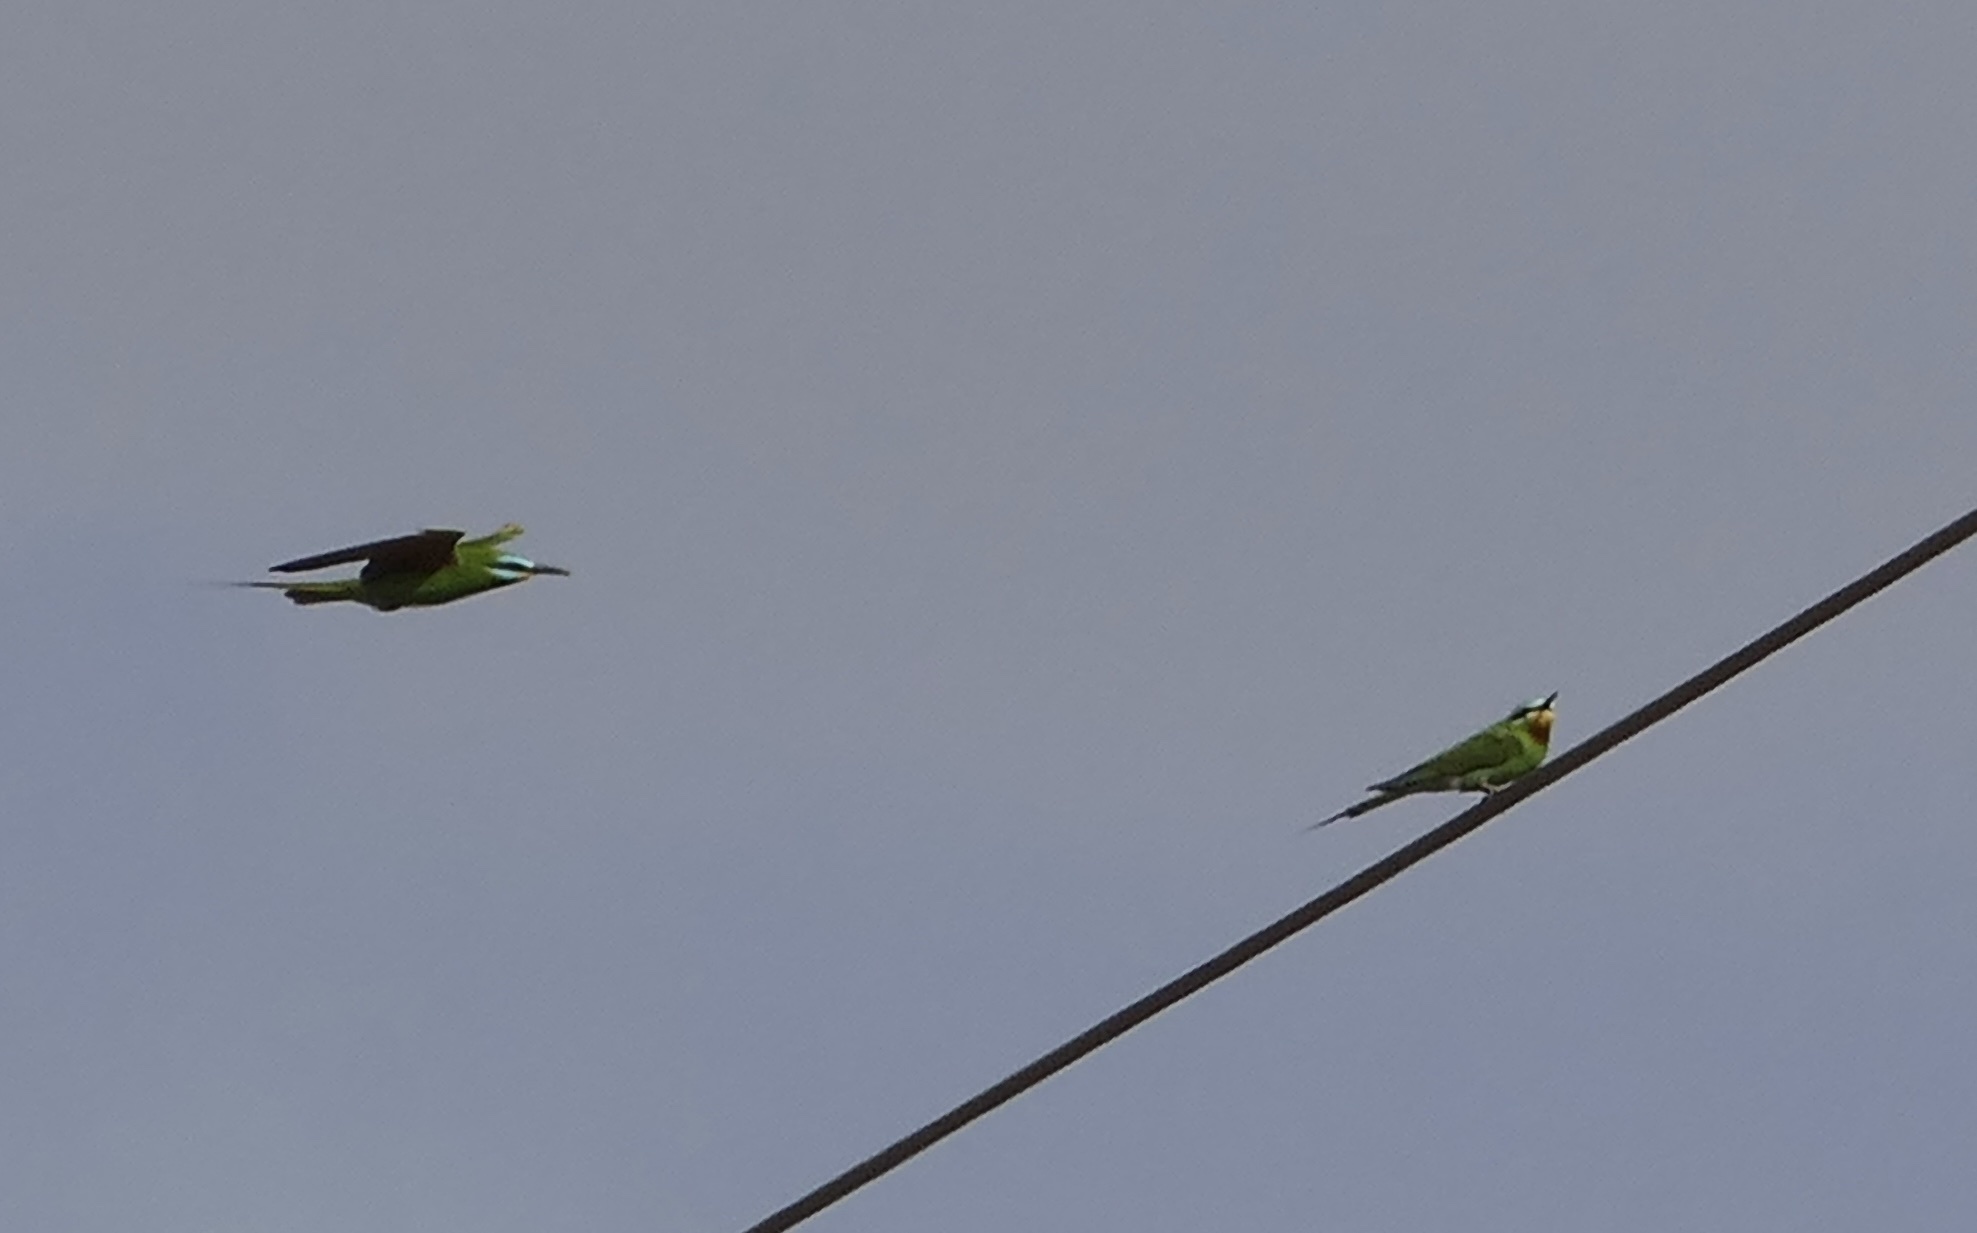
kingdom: Animalia
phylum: Chordata
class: Aves
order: Coraciiformes
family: Meropidae
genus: Merops
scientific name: Merops persicus
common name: Blue-cheeked bee-eater
